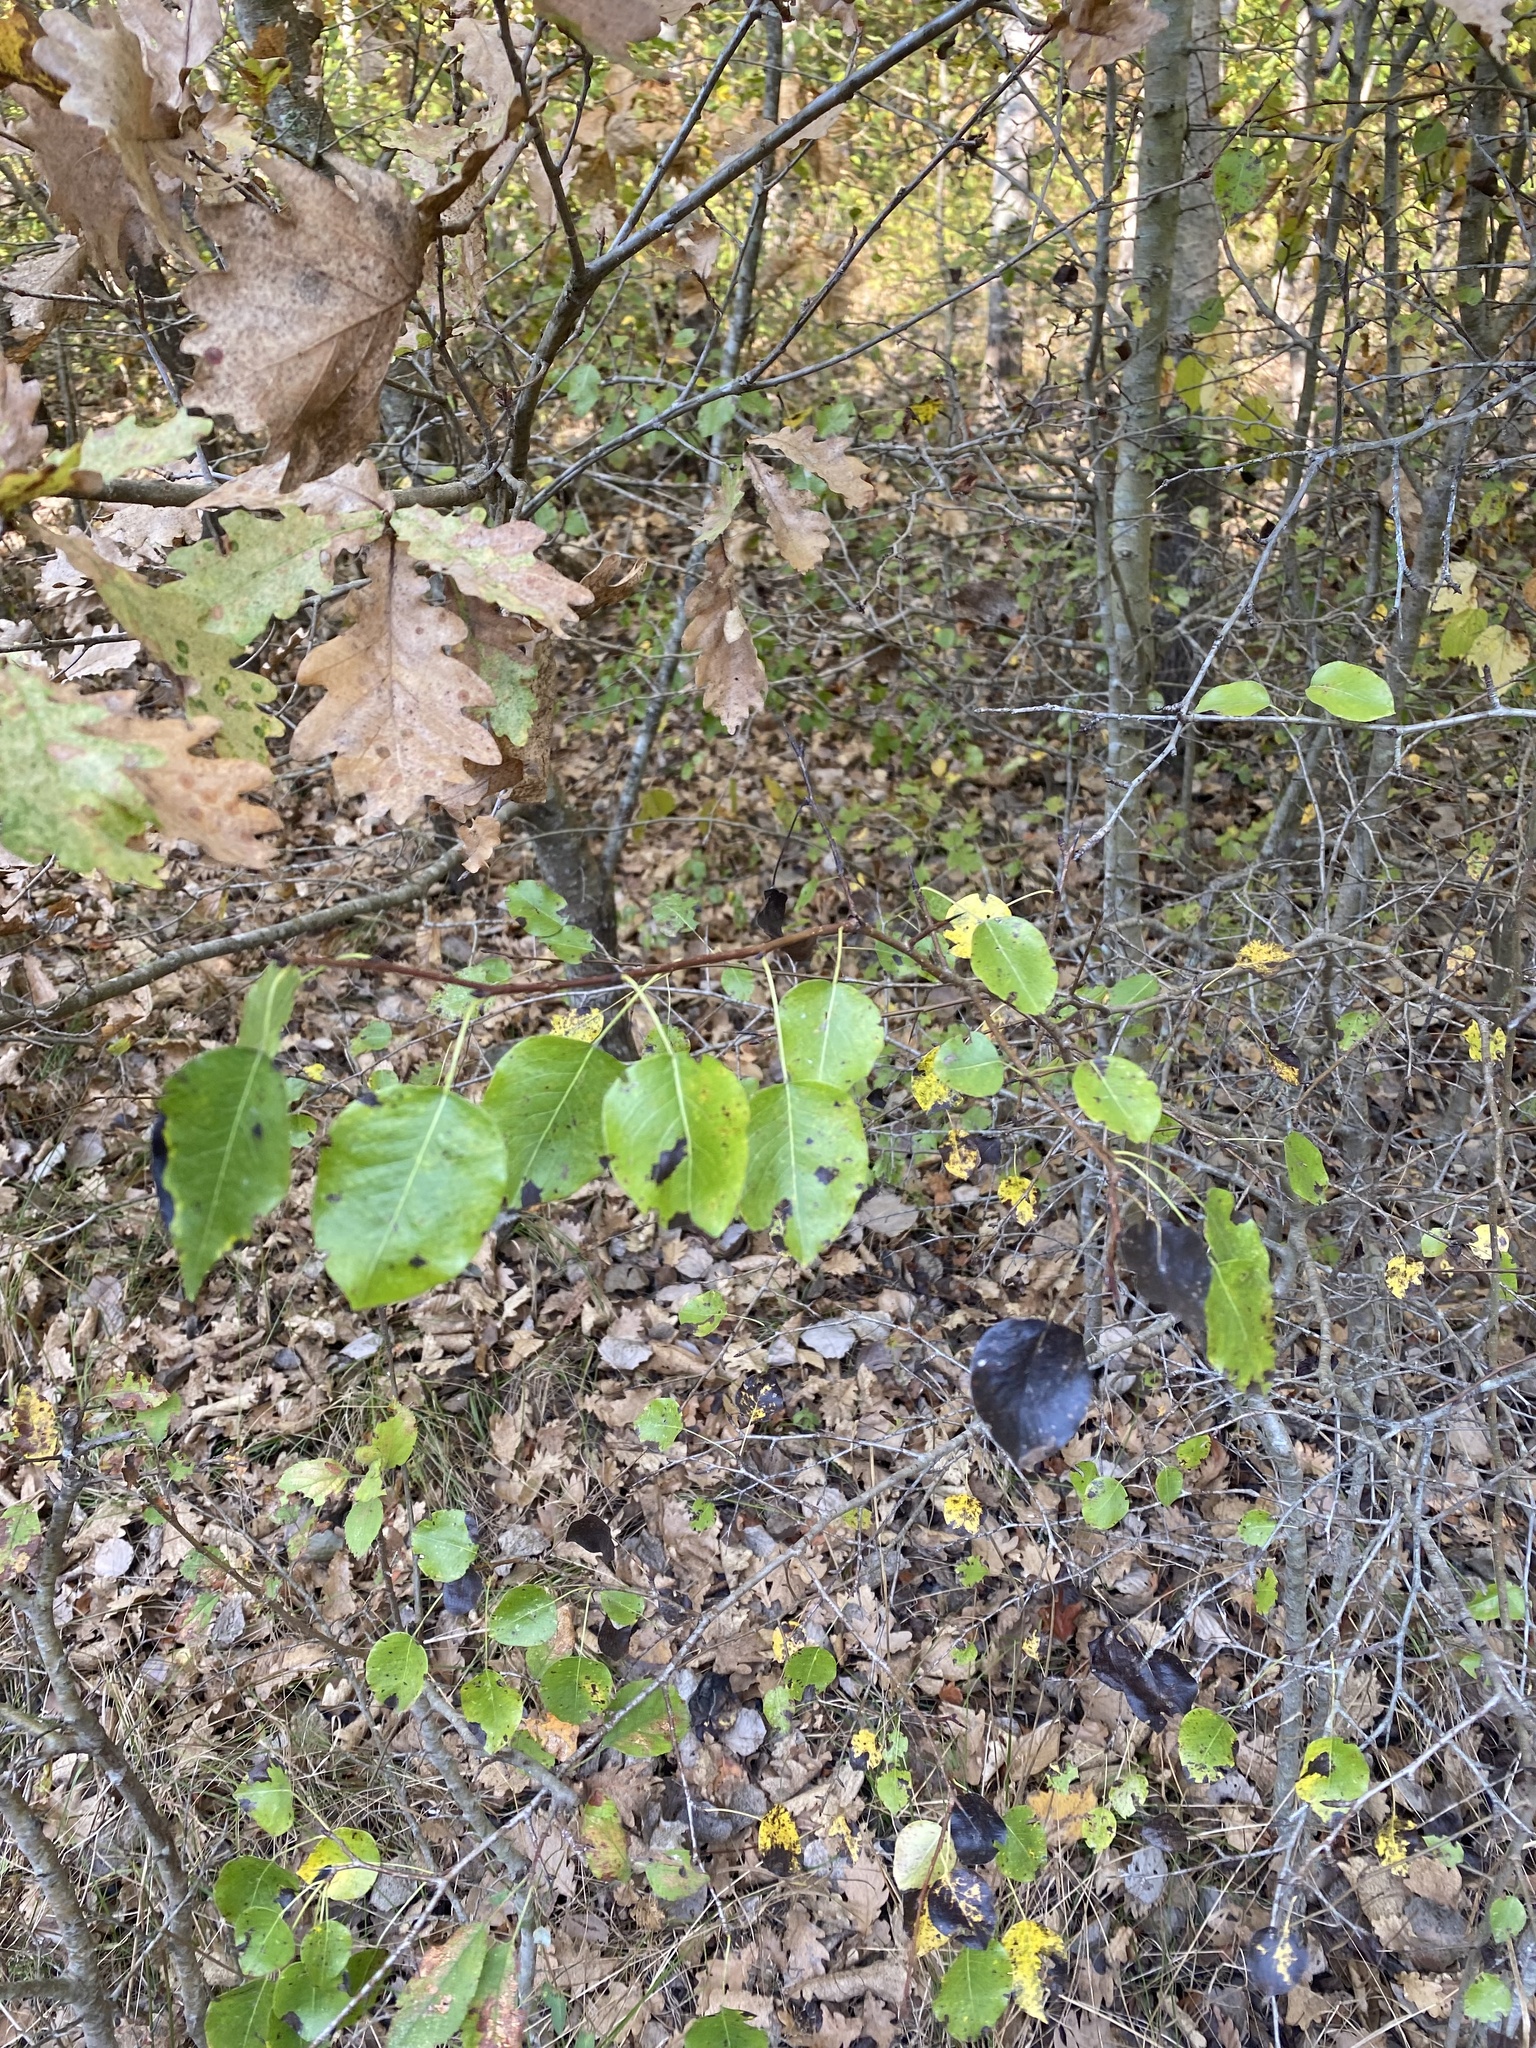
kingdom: Plantae
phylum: Tracheophyta
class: Magnoliopsida
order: Rosales
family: Rosaceae
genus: Pyrus
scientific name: Pyrus communis
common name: Pear
